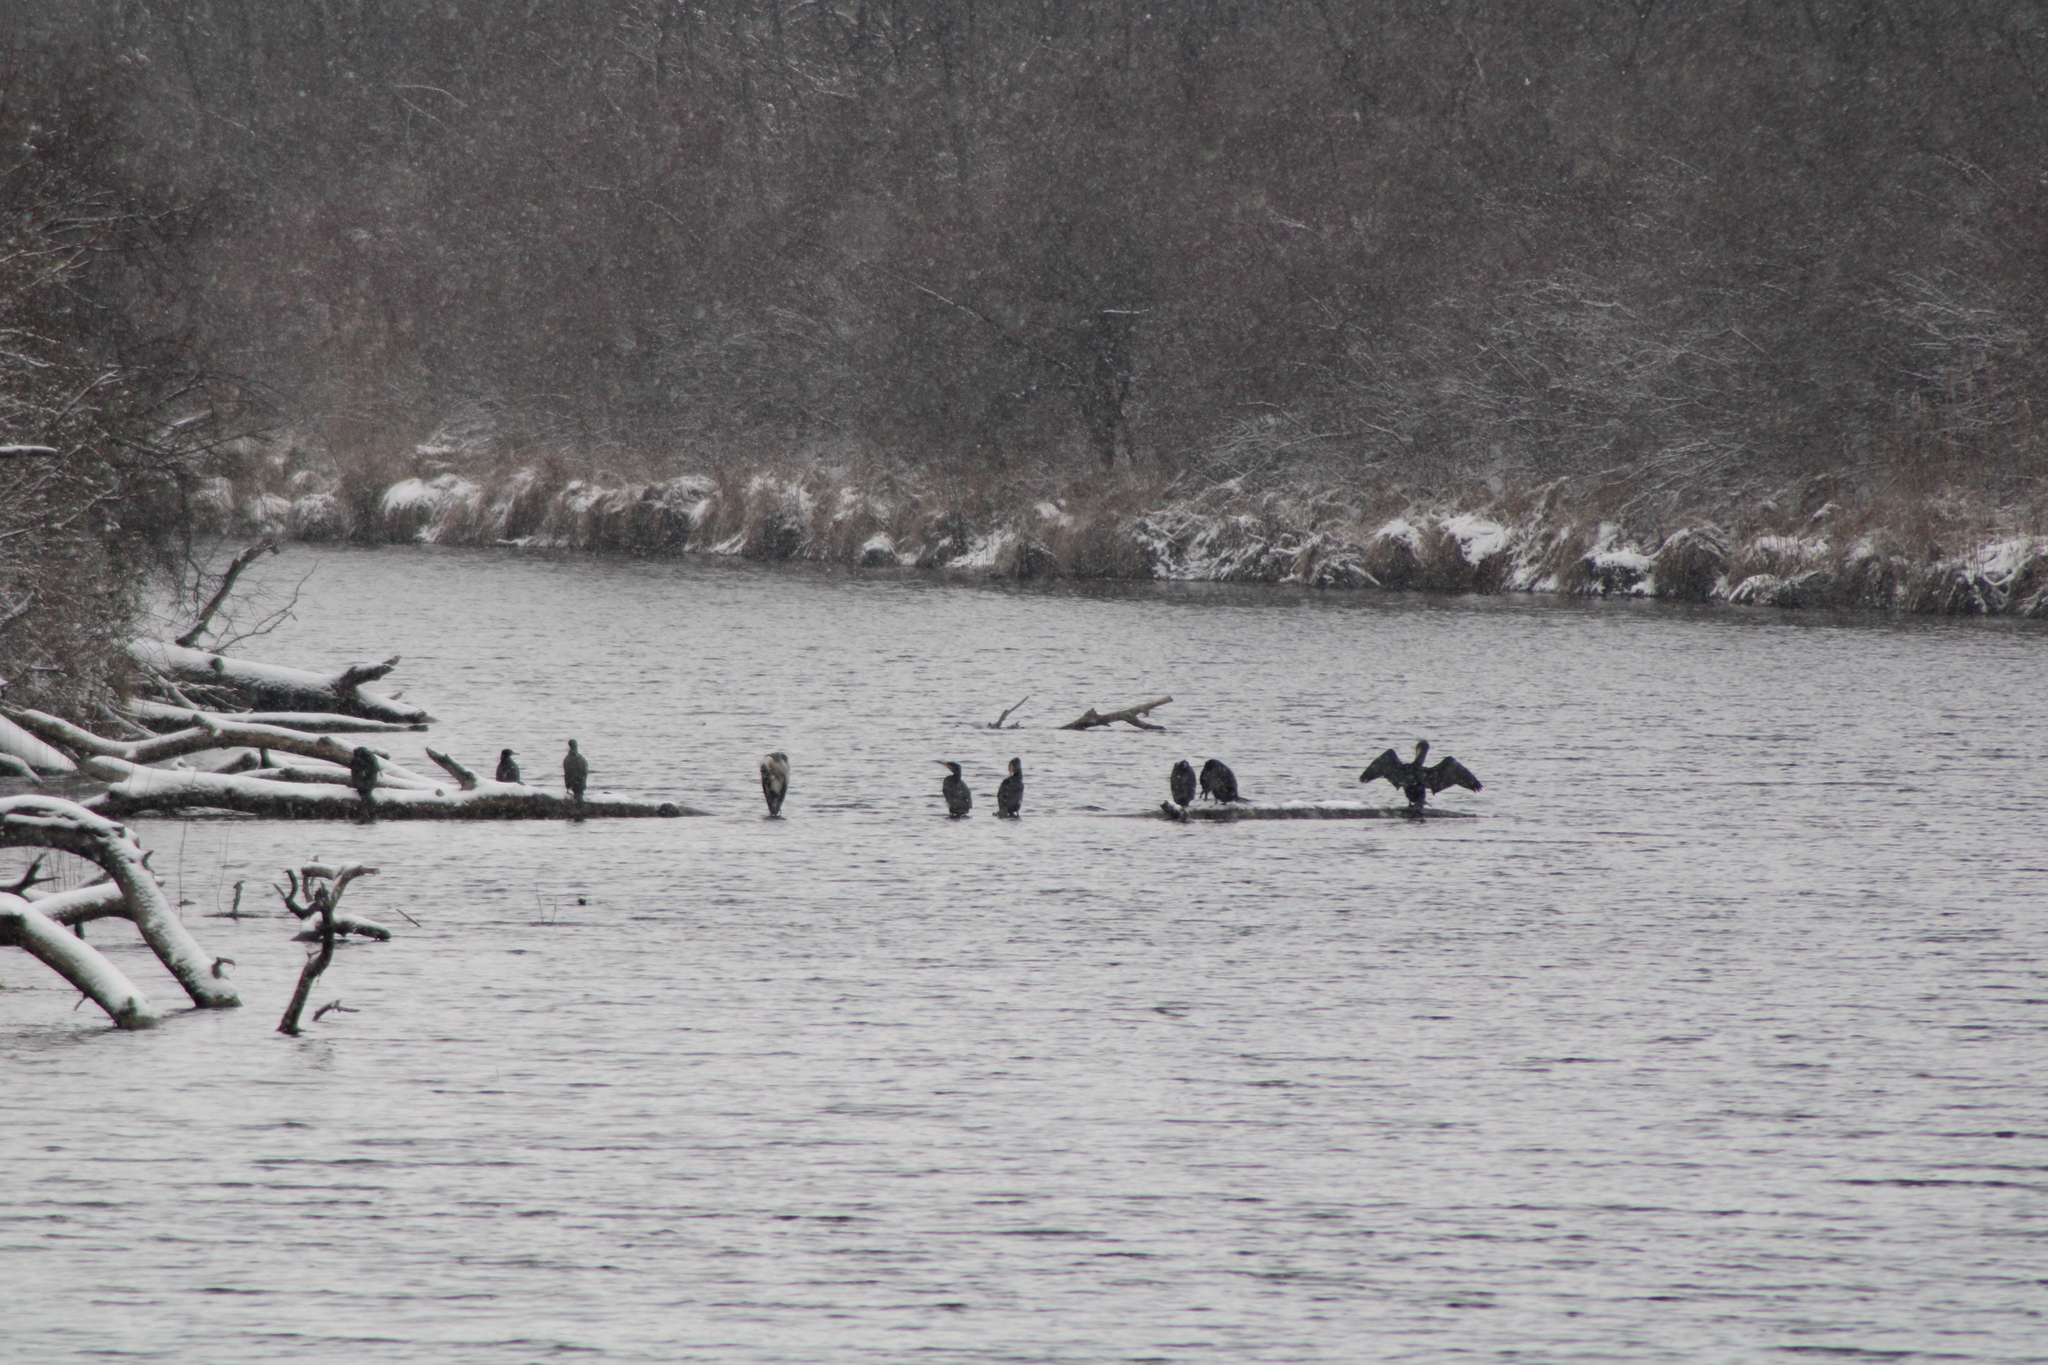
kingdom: Animalia
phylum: Chordata
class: Aves
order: Pelecaniformes
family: Ardeidae
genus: Ardea
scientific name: Ardea cinerea
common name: Grey heron
